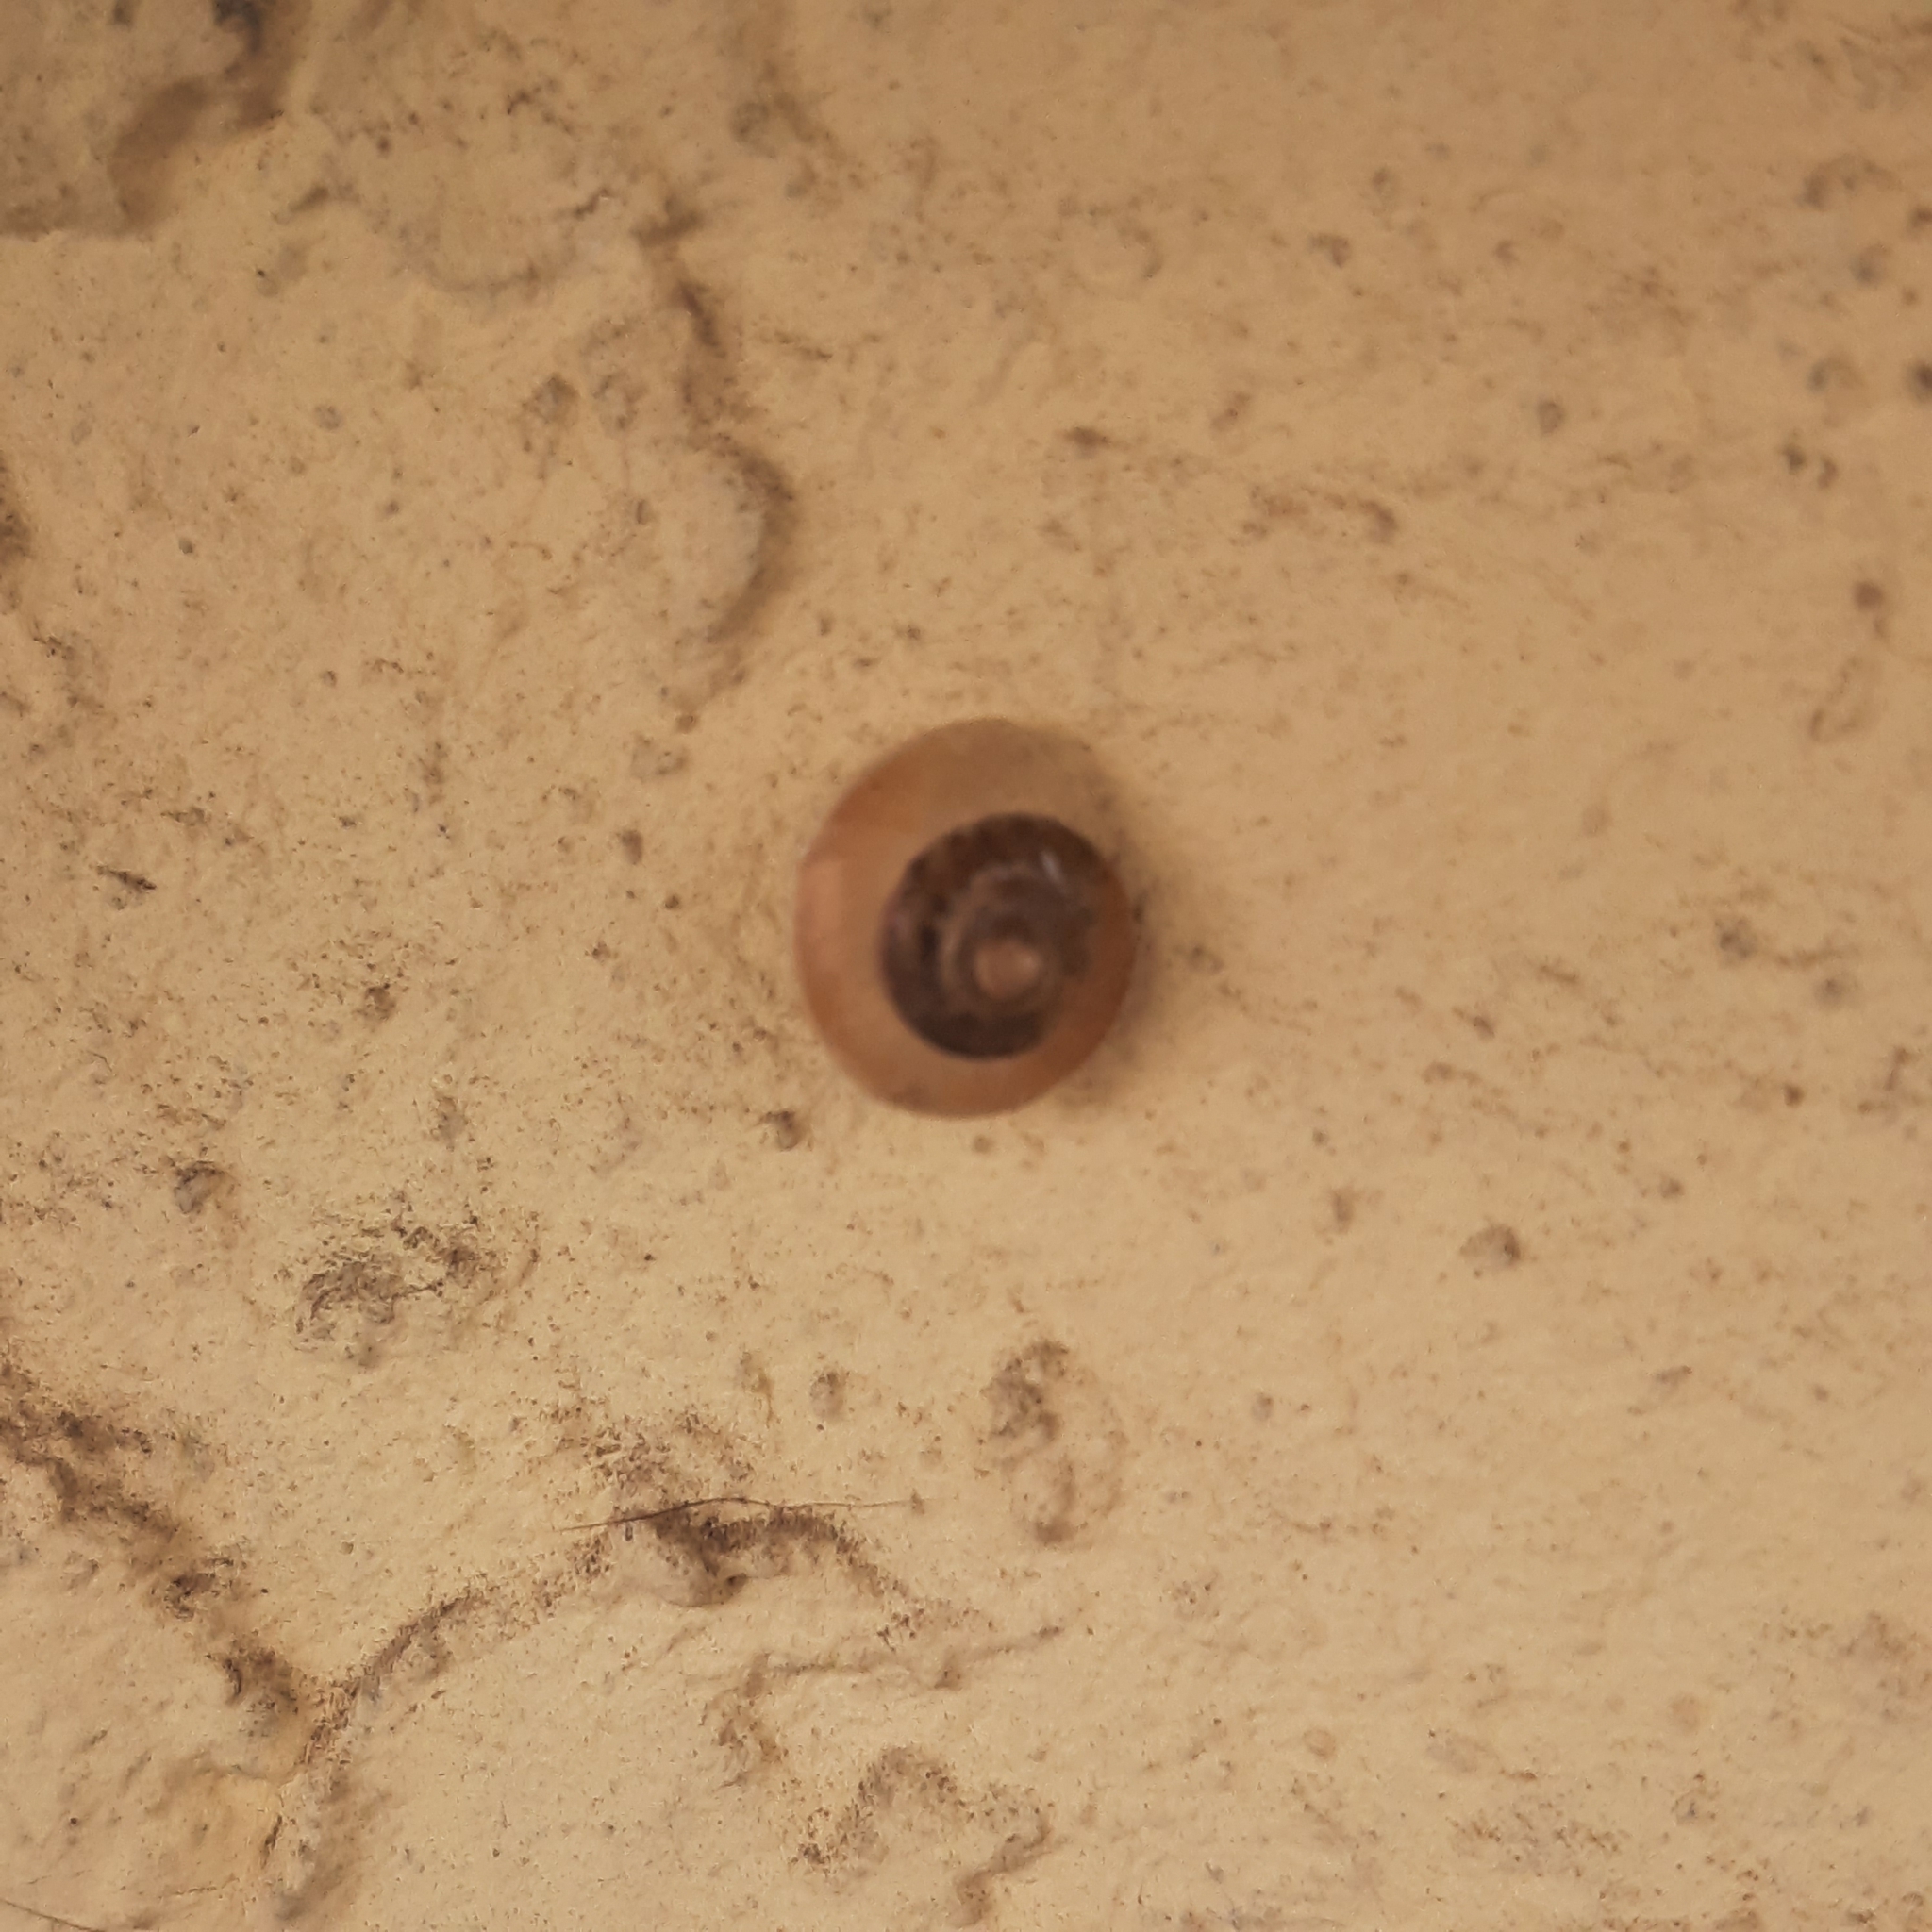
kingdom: Animalia
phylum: Mollusca
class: Gastropoda
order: Stylommatophora
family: Hygromiidae
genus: Hygromia
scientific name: Hygromia cinctella
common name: Girdled snail
